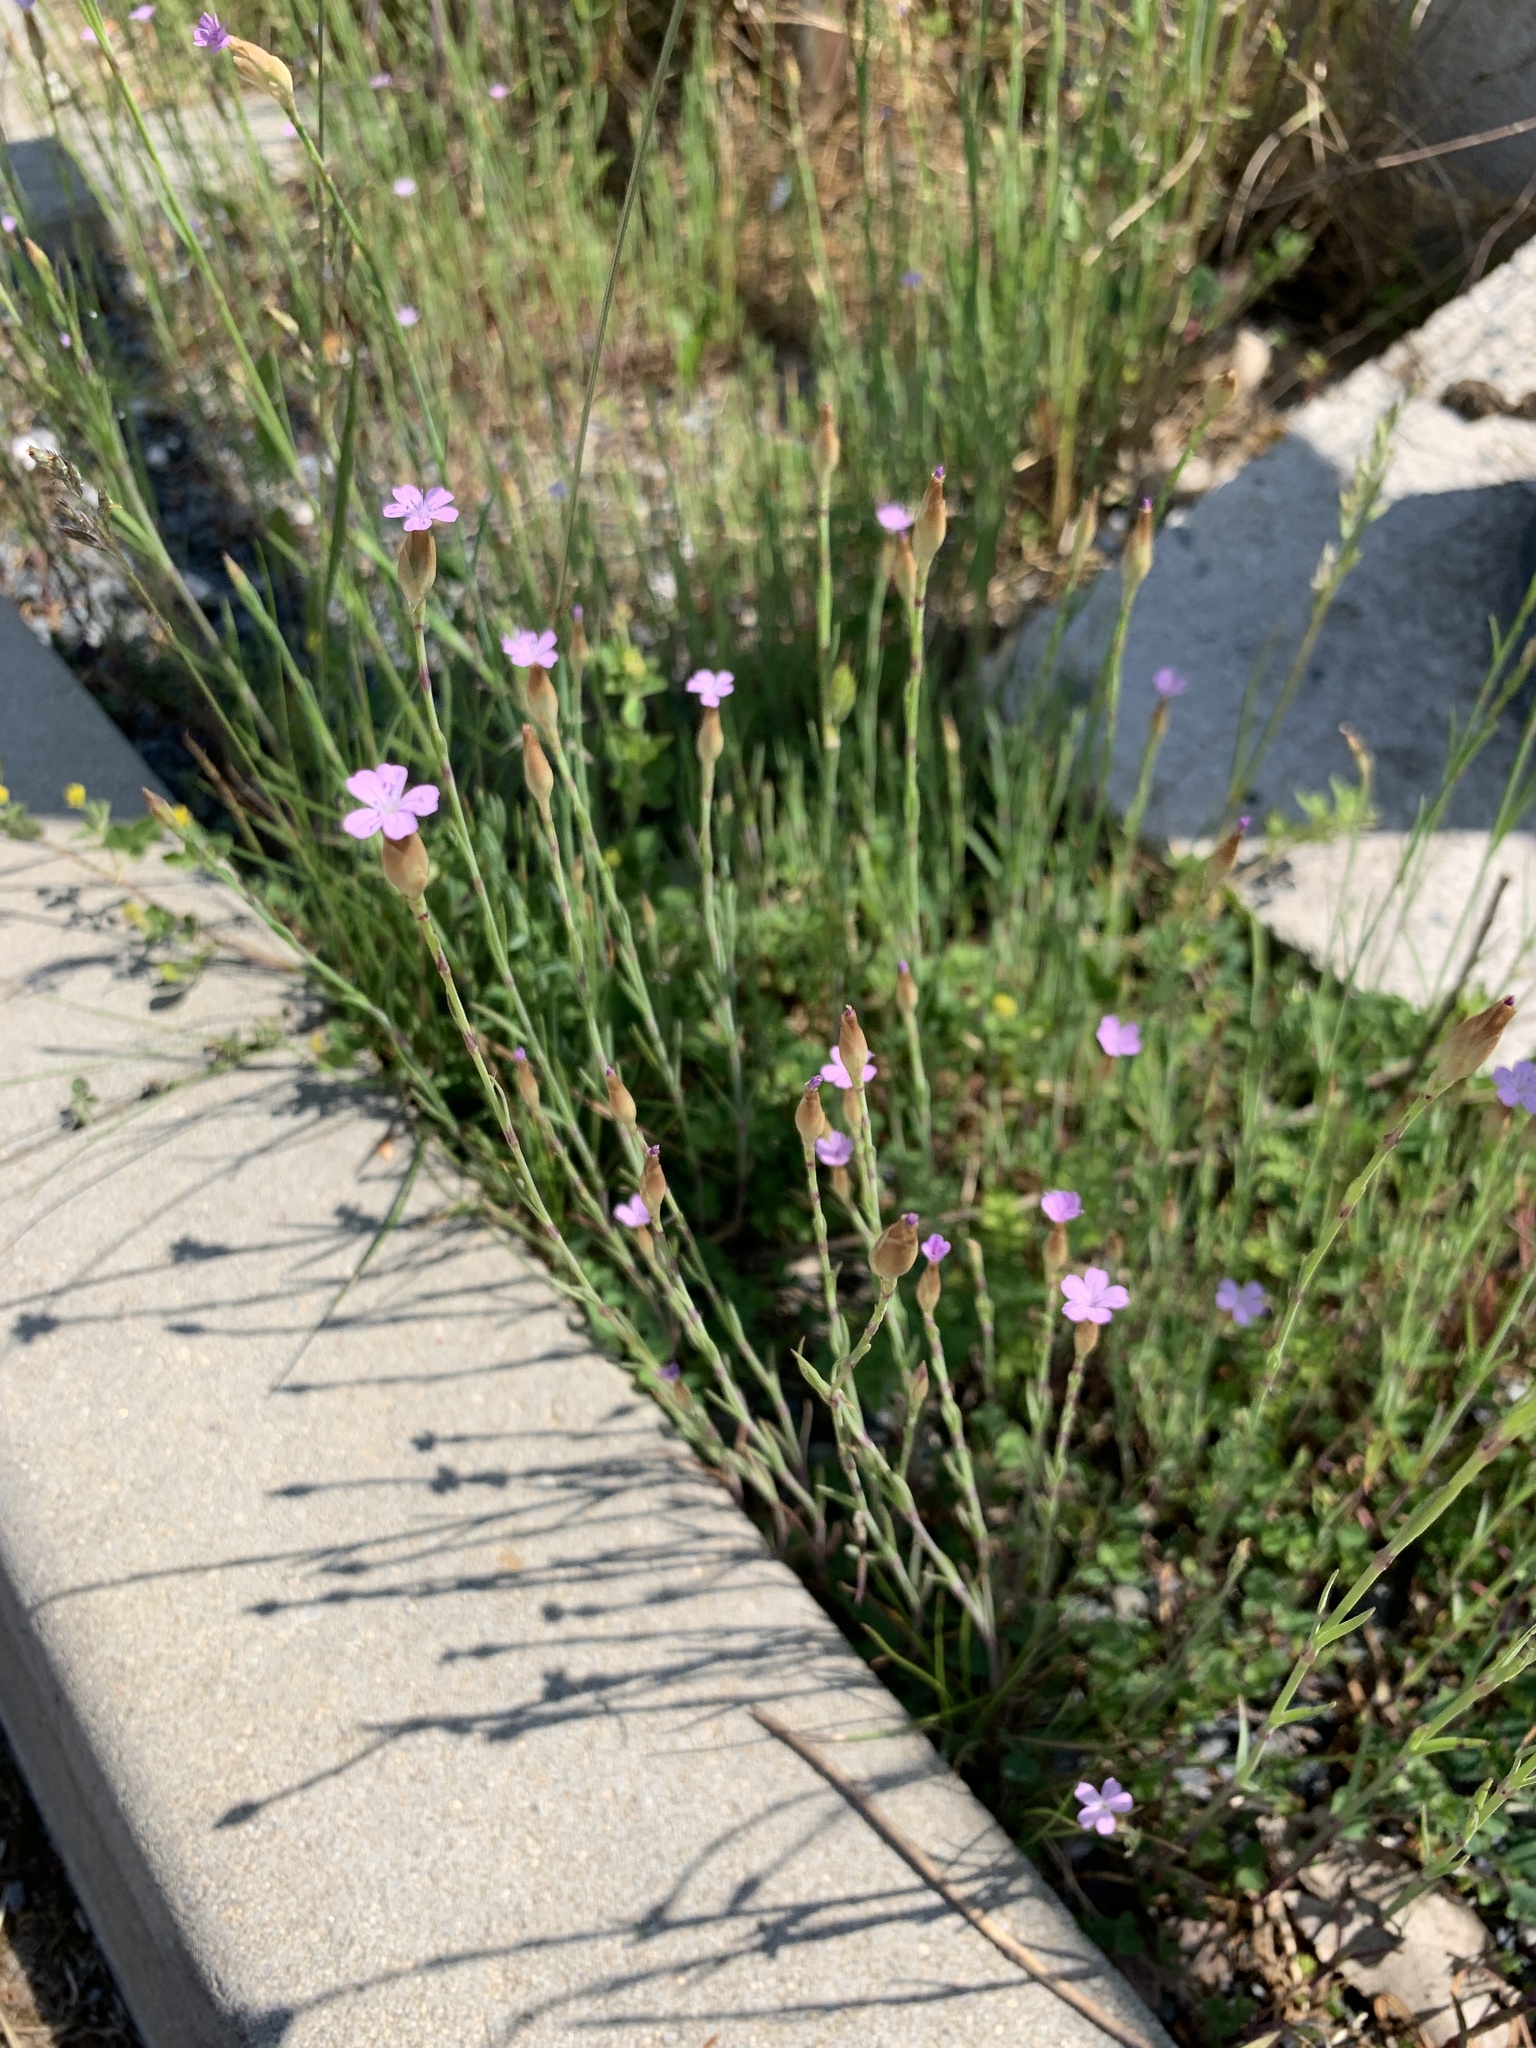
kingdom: Plantae
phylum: Tracheophyta
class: Magnoliopsida
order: Caryophyllales
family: Caryophyllaceae
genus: Petrorhagia
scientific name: Petrorhagia prolifera
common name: Proliferous pink
